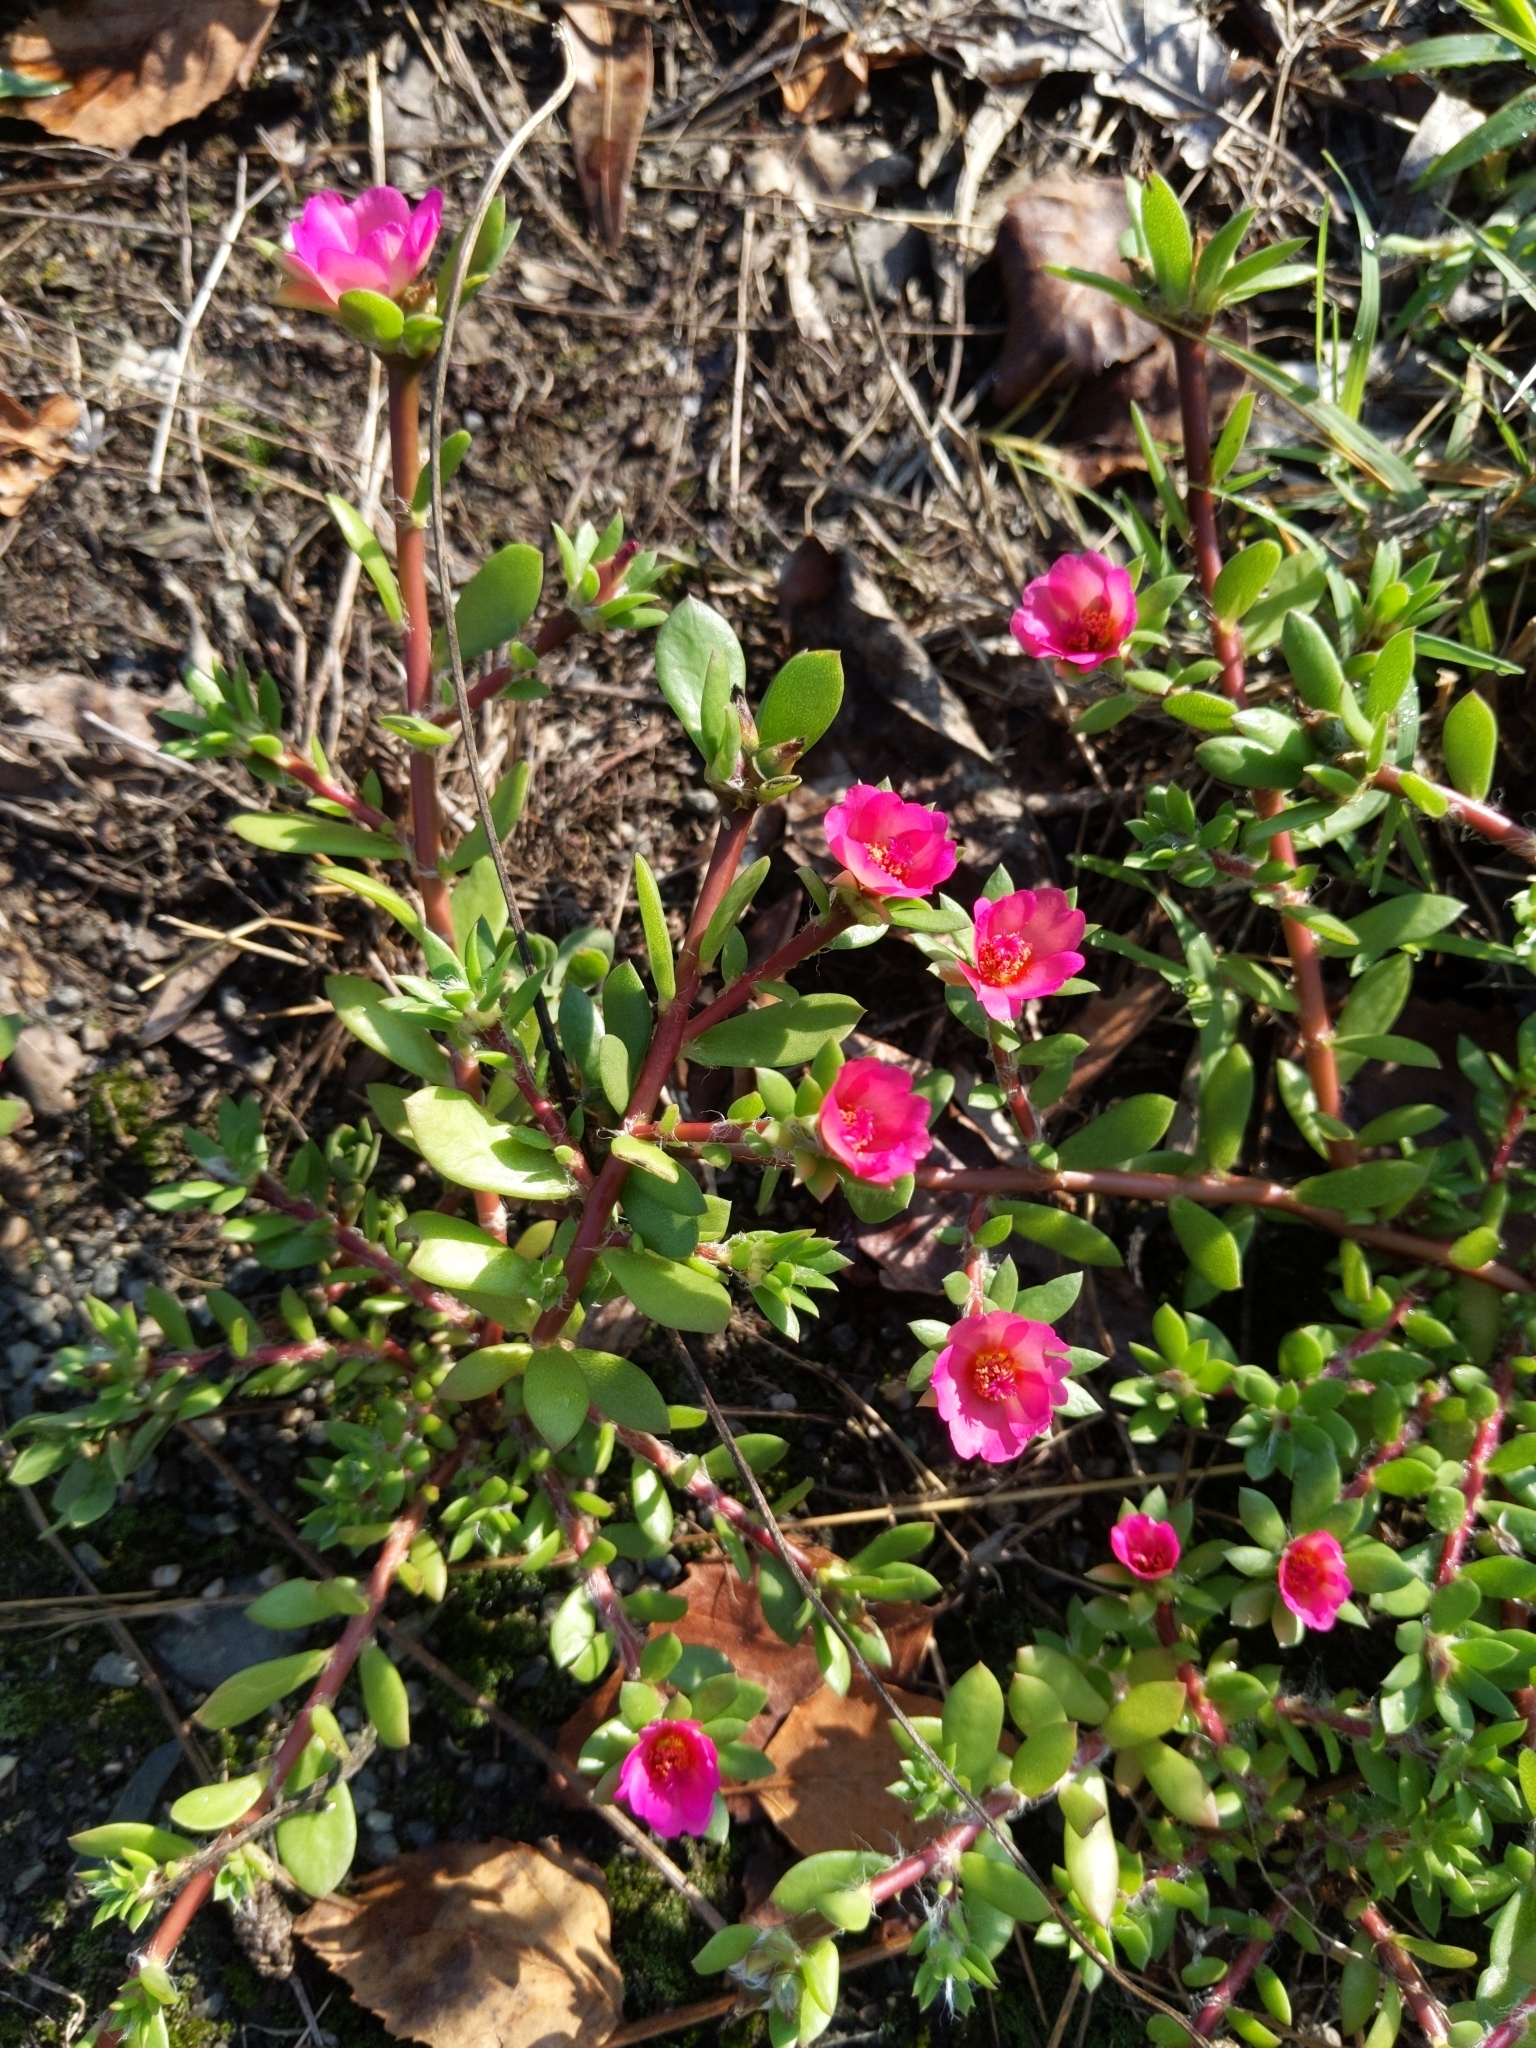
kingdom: Plantae
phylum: Tracheophyta
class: Magnoliopsida
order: Caryophyllales
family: Portulacaceae
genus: Portulaca
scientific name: Portulaca amilis
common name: Paraguayan purslane
